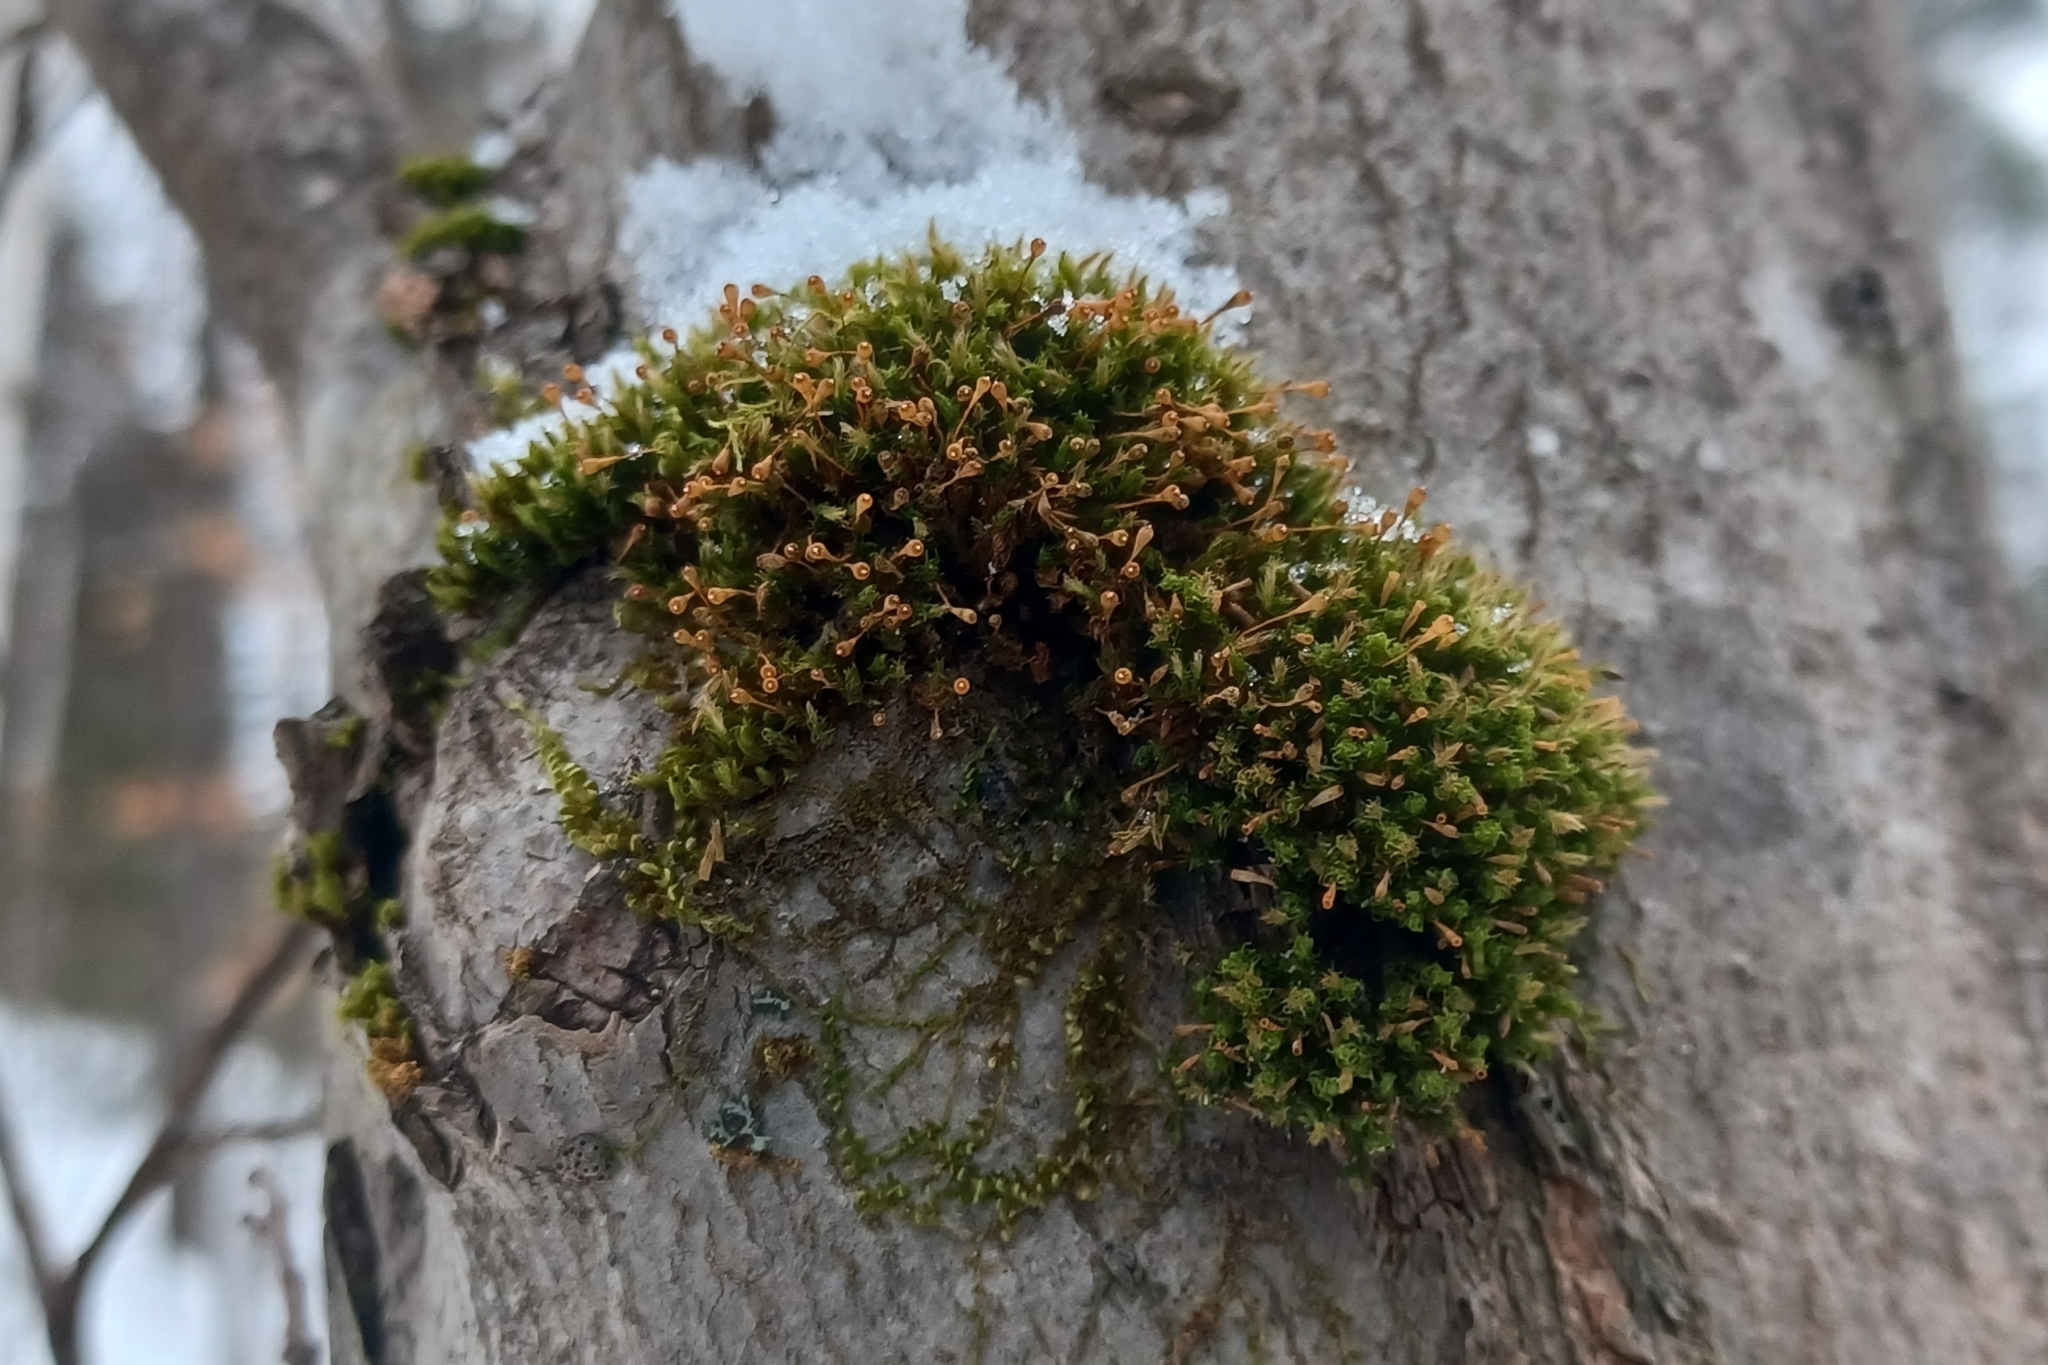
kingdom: Plantae
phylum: Bryophyta
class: Bryopsida
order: Orthotrichales
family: Orthotrichaceae
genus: Ulota
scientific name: Ulota coarctata
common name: Club pincushion moss
